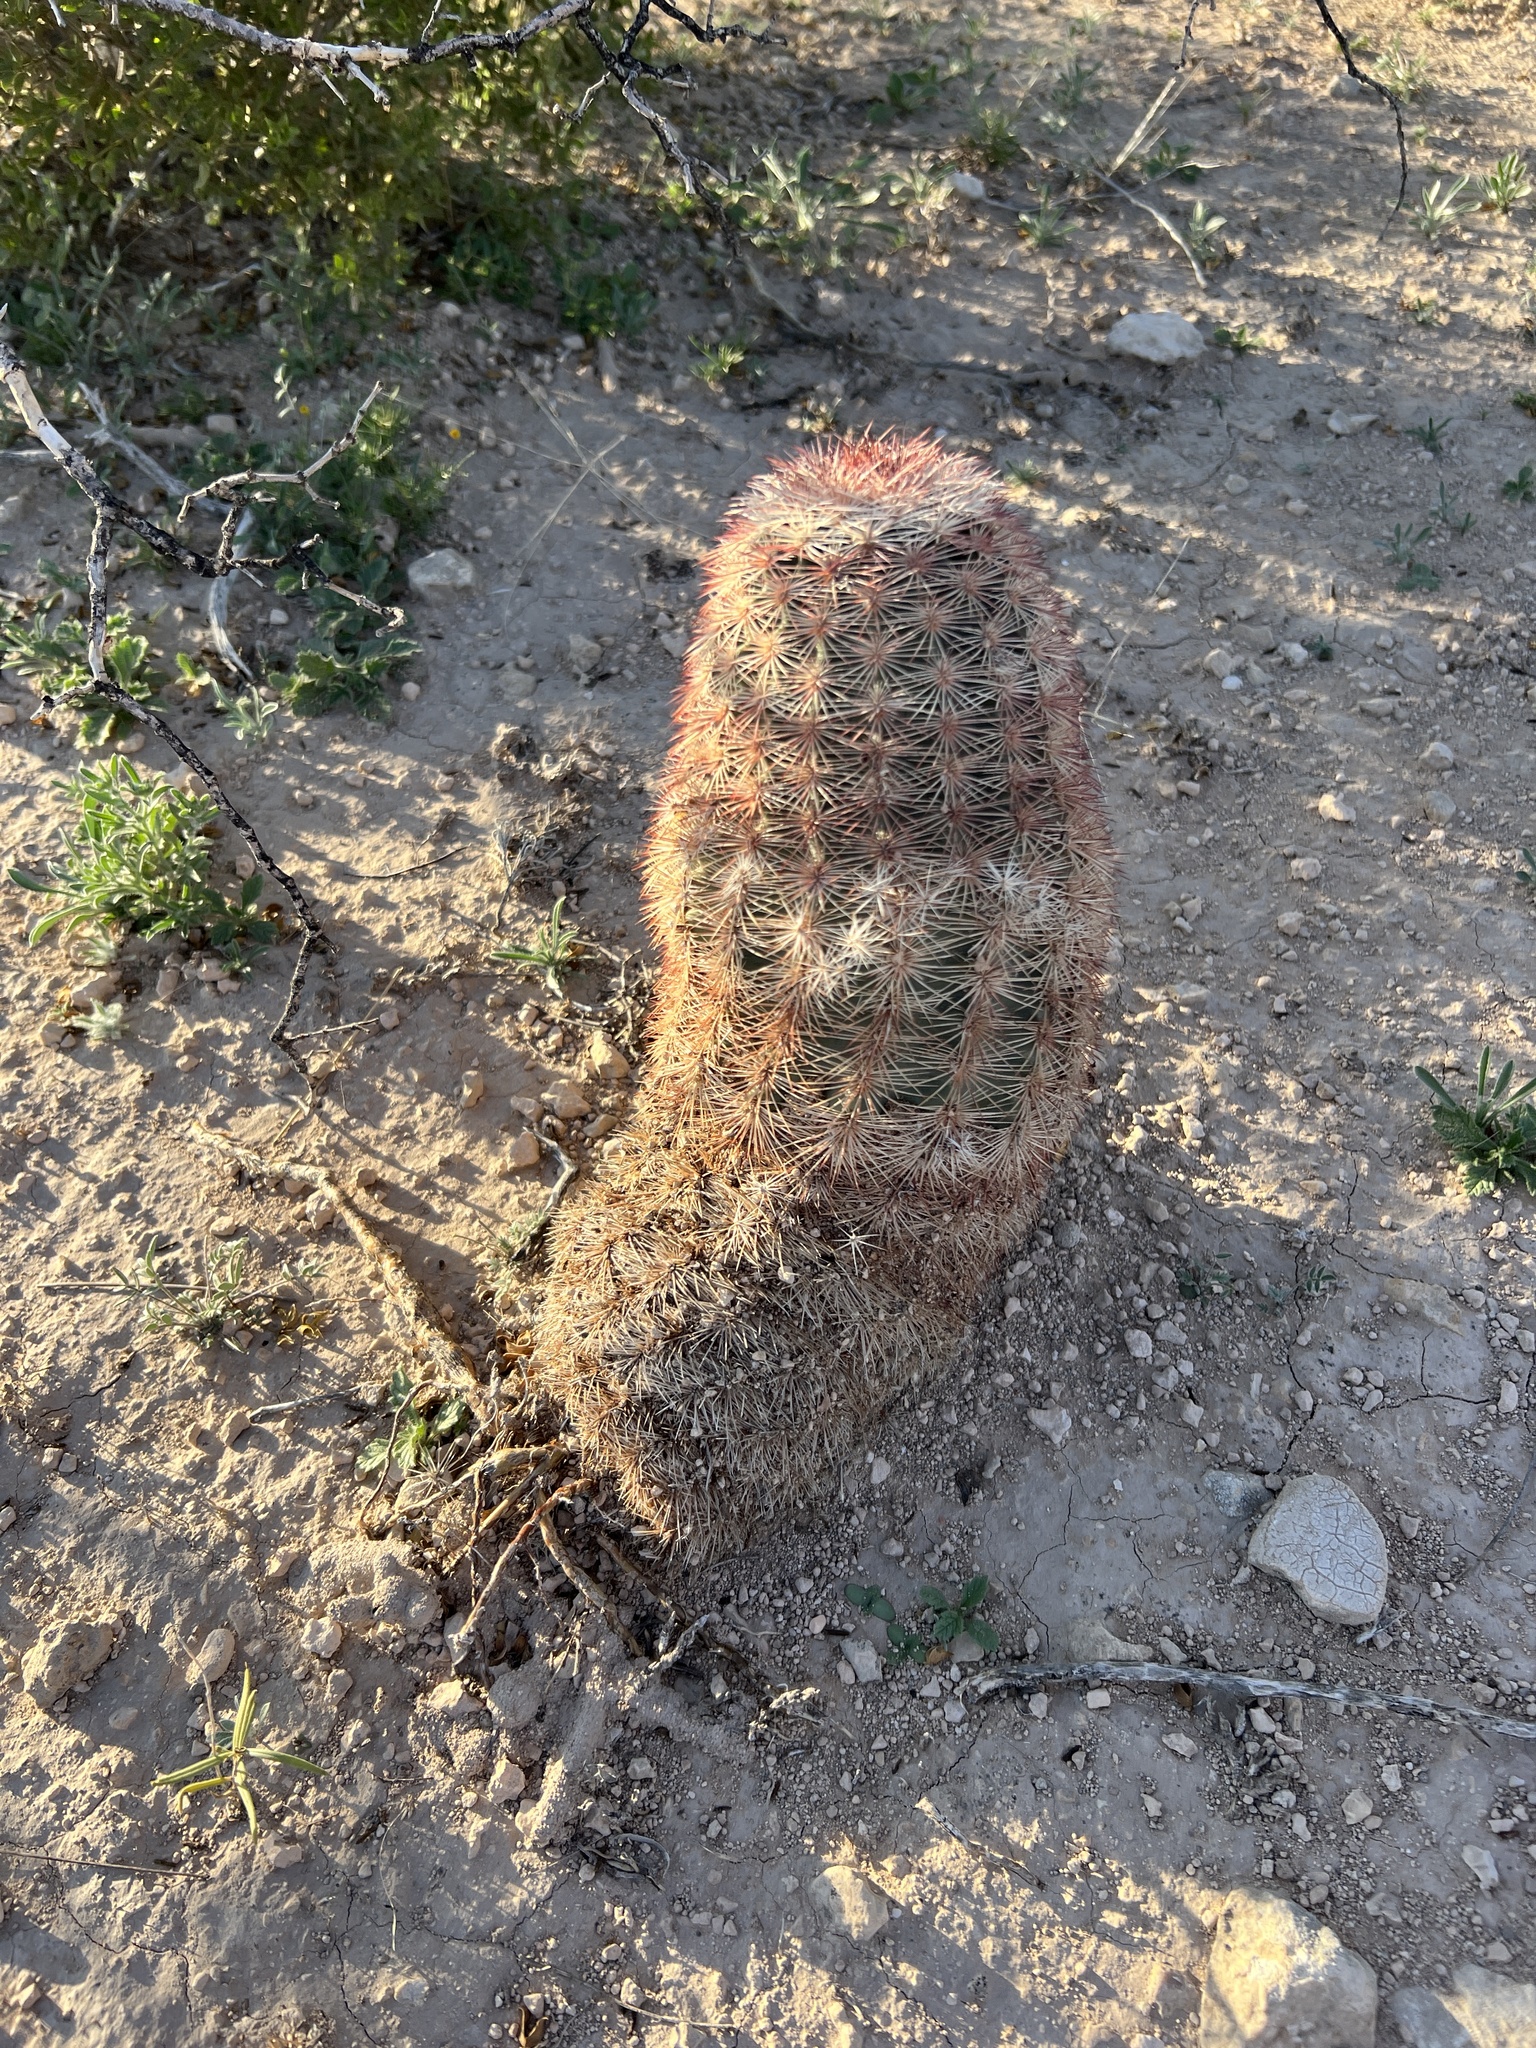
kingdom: Plantae
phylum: Tracheophyta
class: Magnoliopsida
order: Caryophyllales
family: Cactaceae
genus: Echinocereus
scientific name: Echinocereus dasyacanthus
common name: Spiny hedgehog cactus
